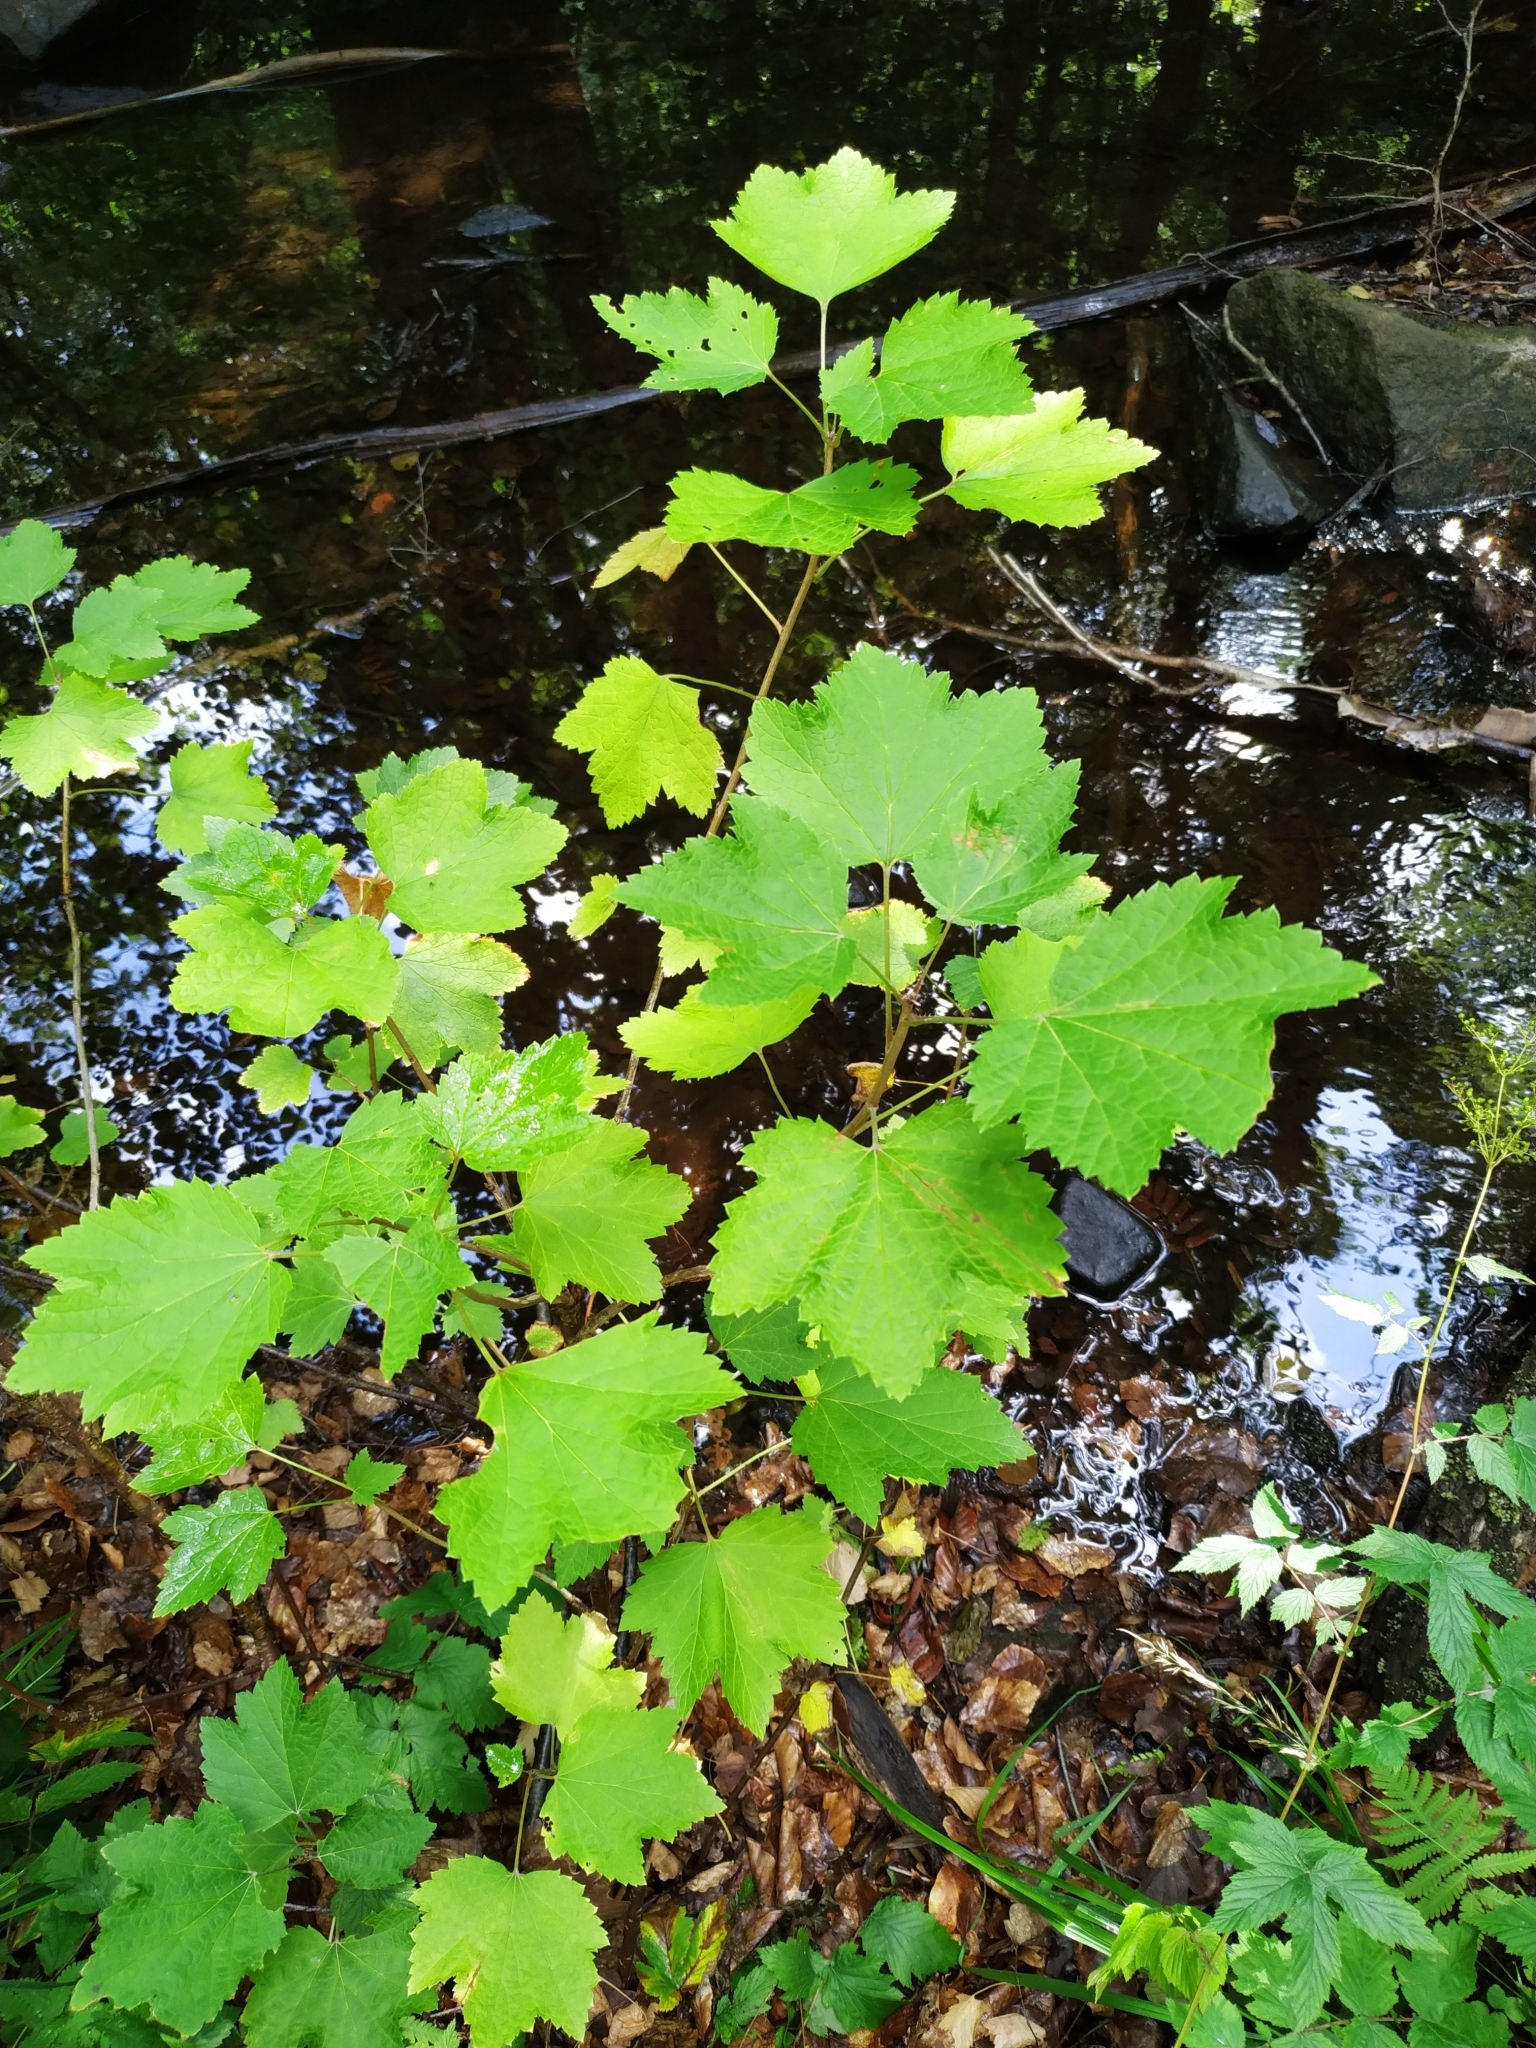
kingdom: Plantae
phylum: Tracheophyta
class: Magnoliopsida
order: Saxifragales
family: Grossulariaceae
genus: Ribes
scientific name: Ribes rubrum
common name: Red currant
